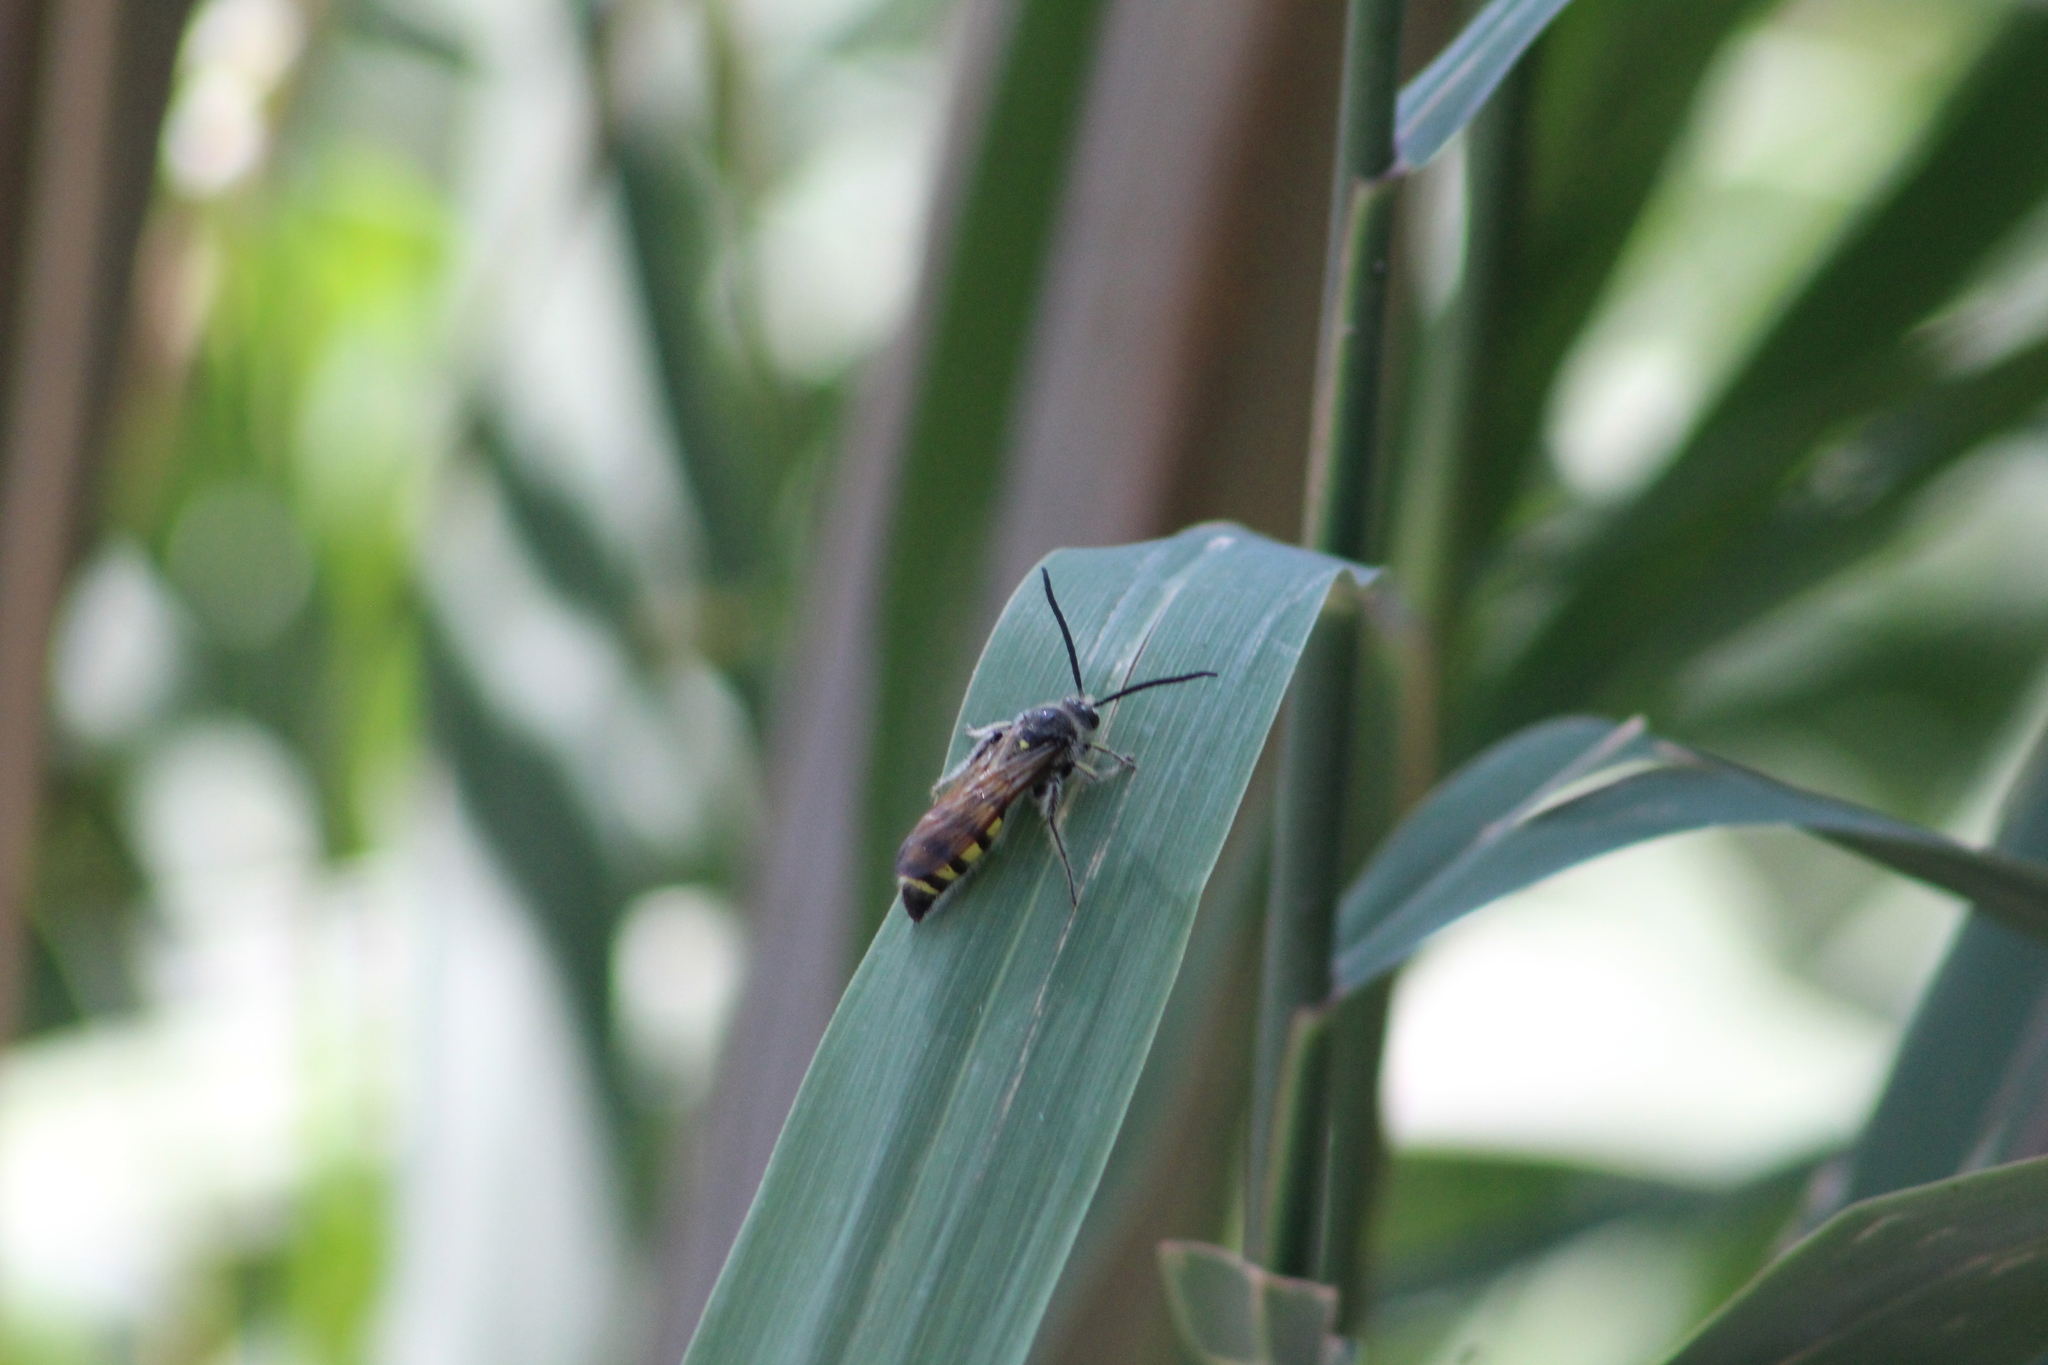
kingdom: Animalia
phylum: Arthropoda
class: Insecta
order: Hymenoptera
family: Scoliidae
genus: Dielis
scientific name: Dielis
